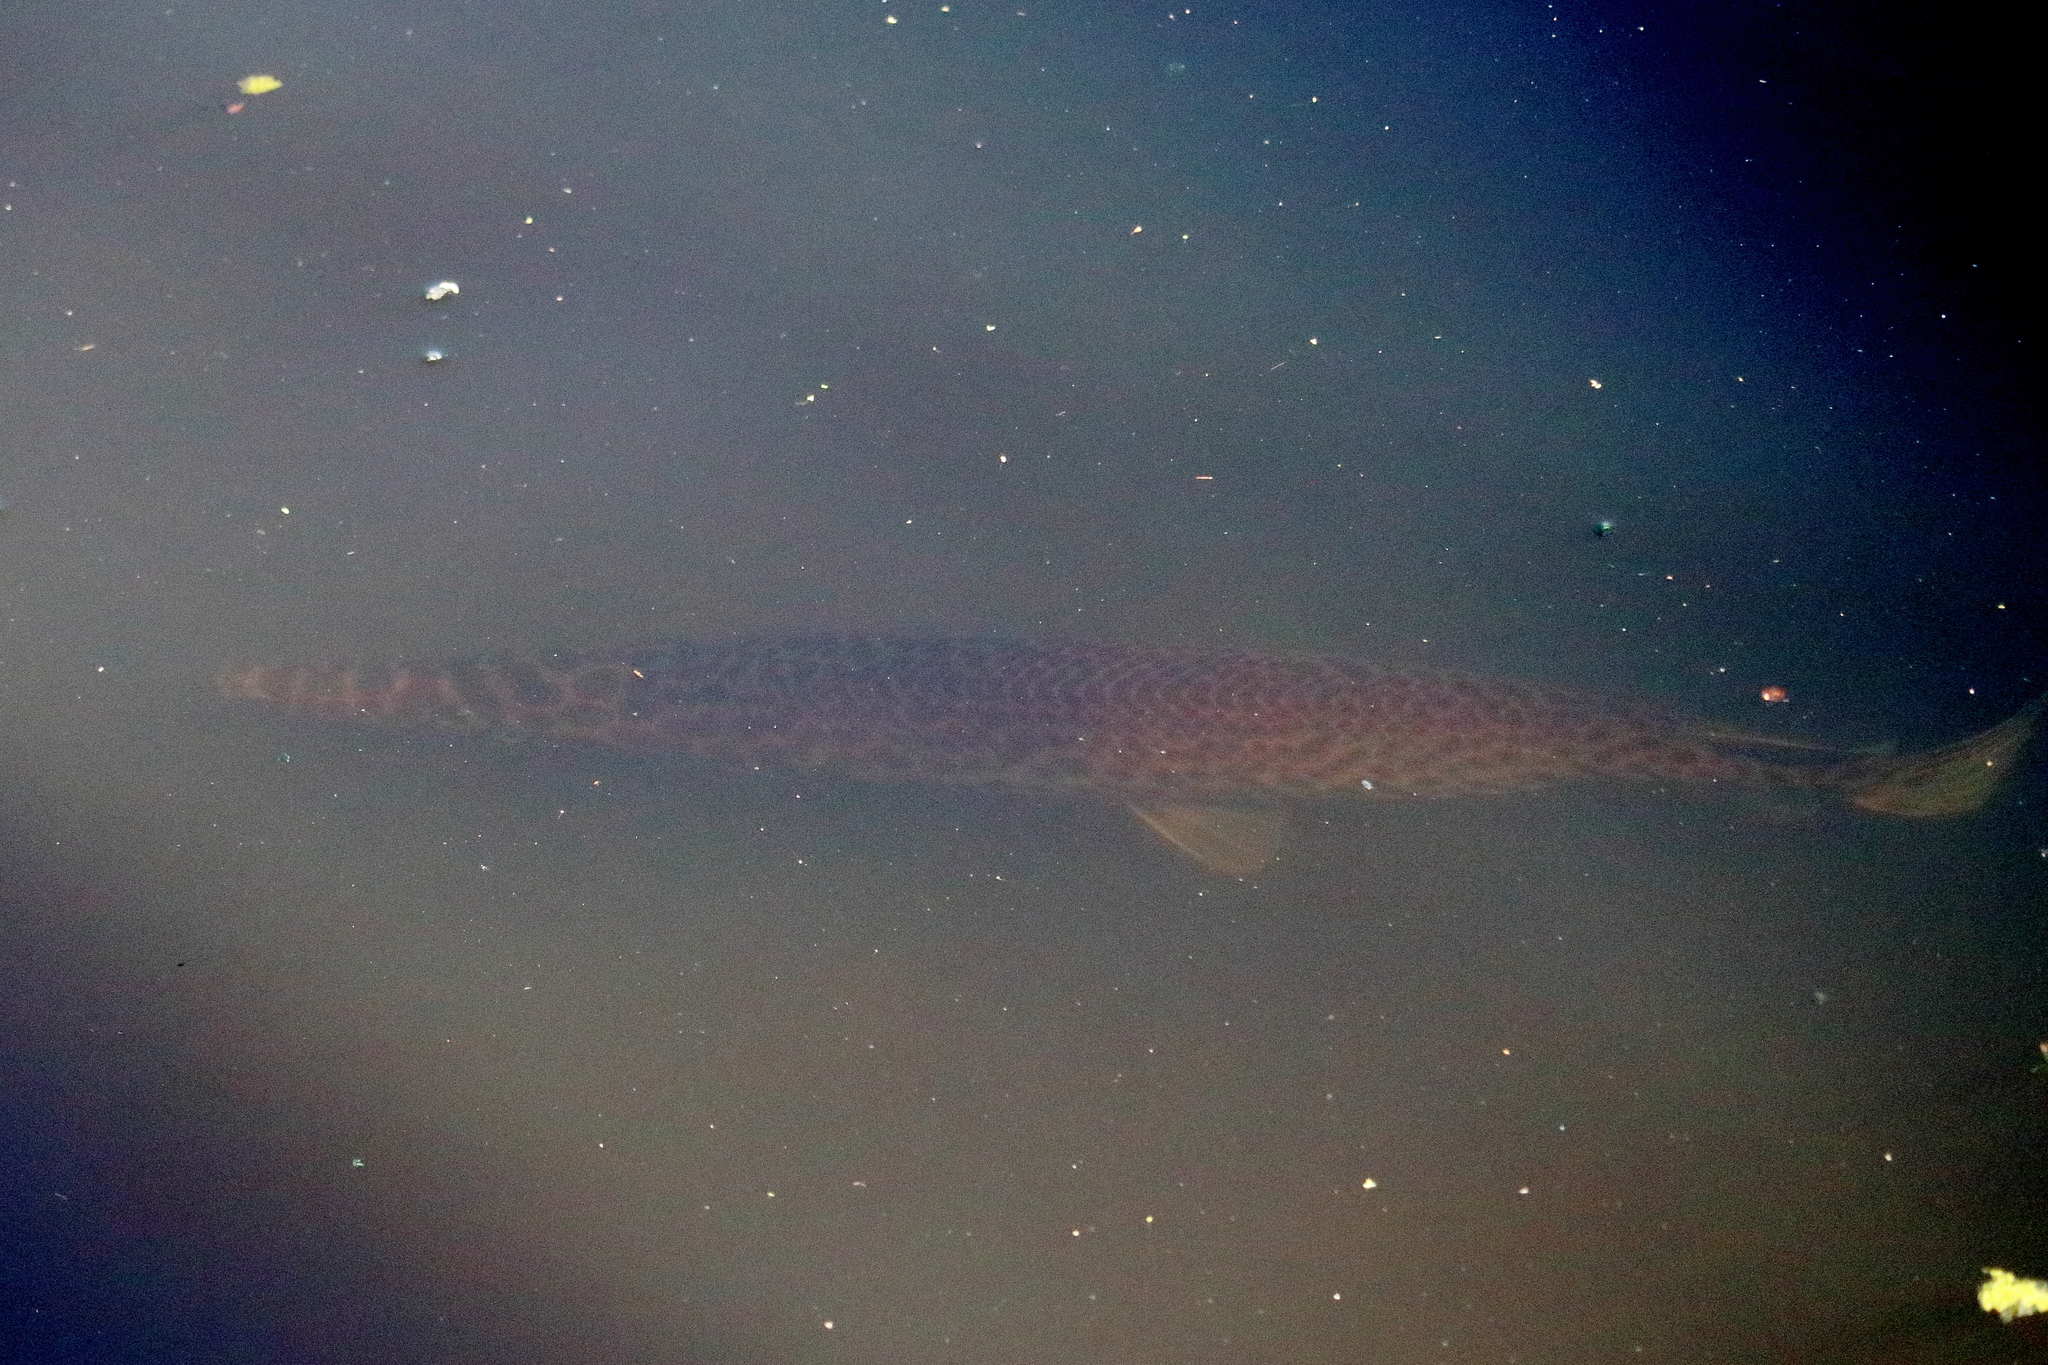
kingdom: Animalia
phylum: Chordata
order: Lepisosteiformes
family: Lepisosteidae
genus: Lepisosteus
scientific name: Lepisosteus platyrhincus
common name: Florida gar
